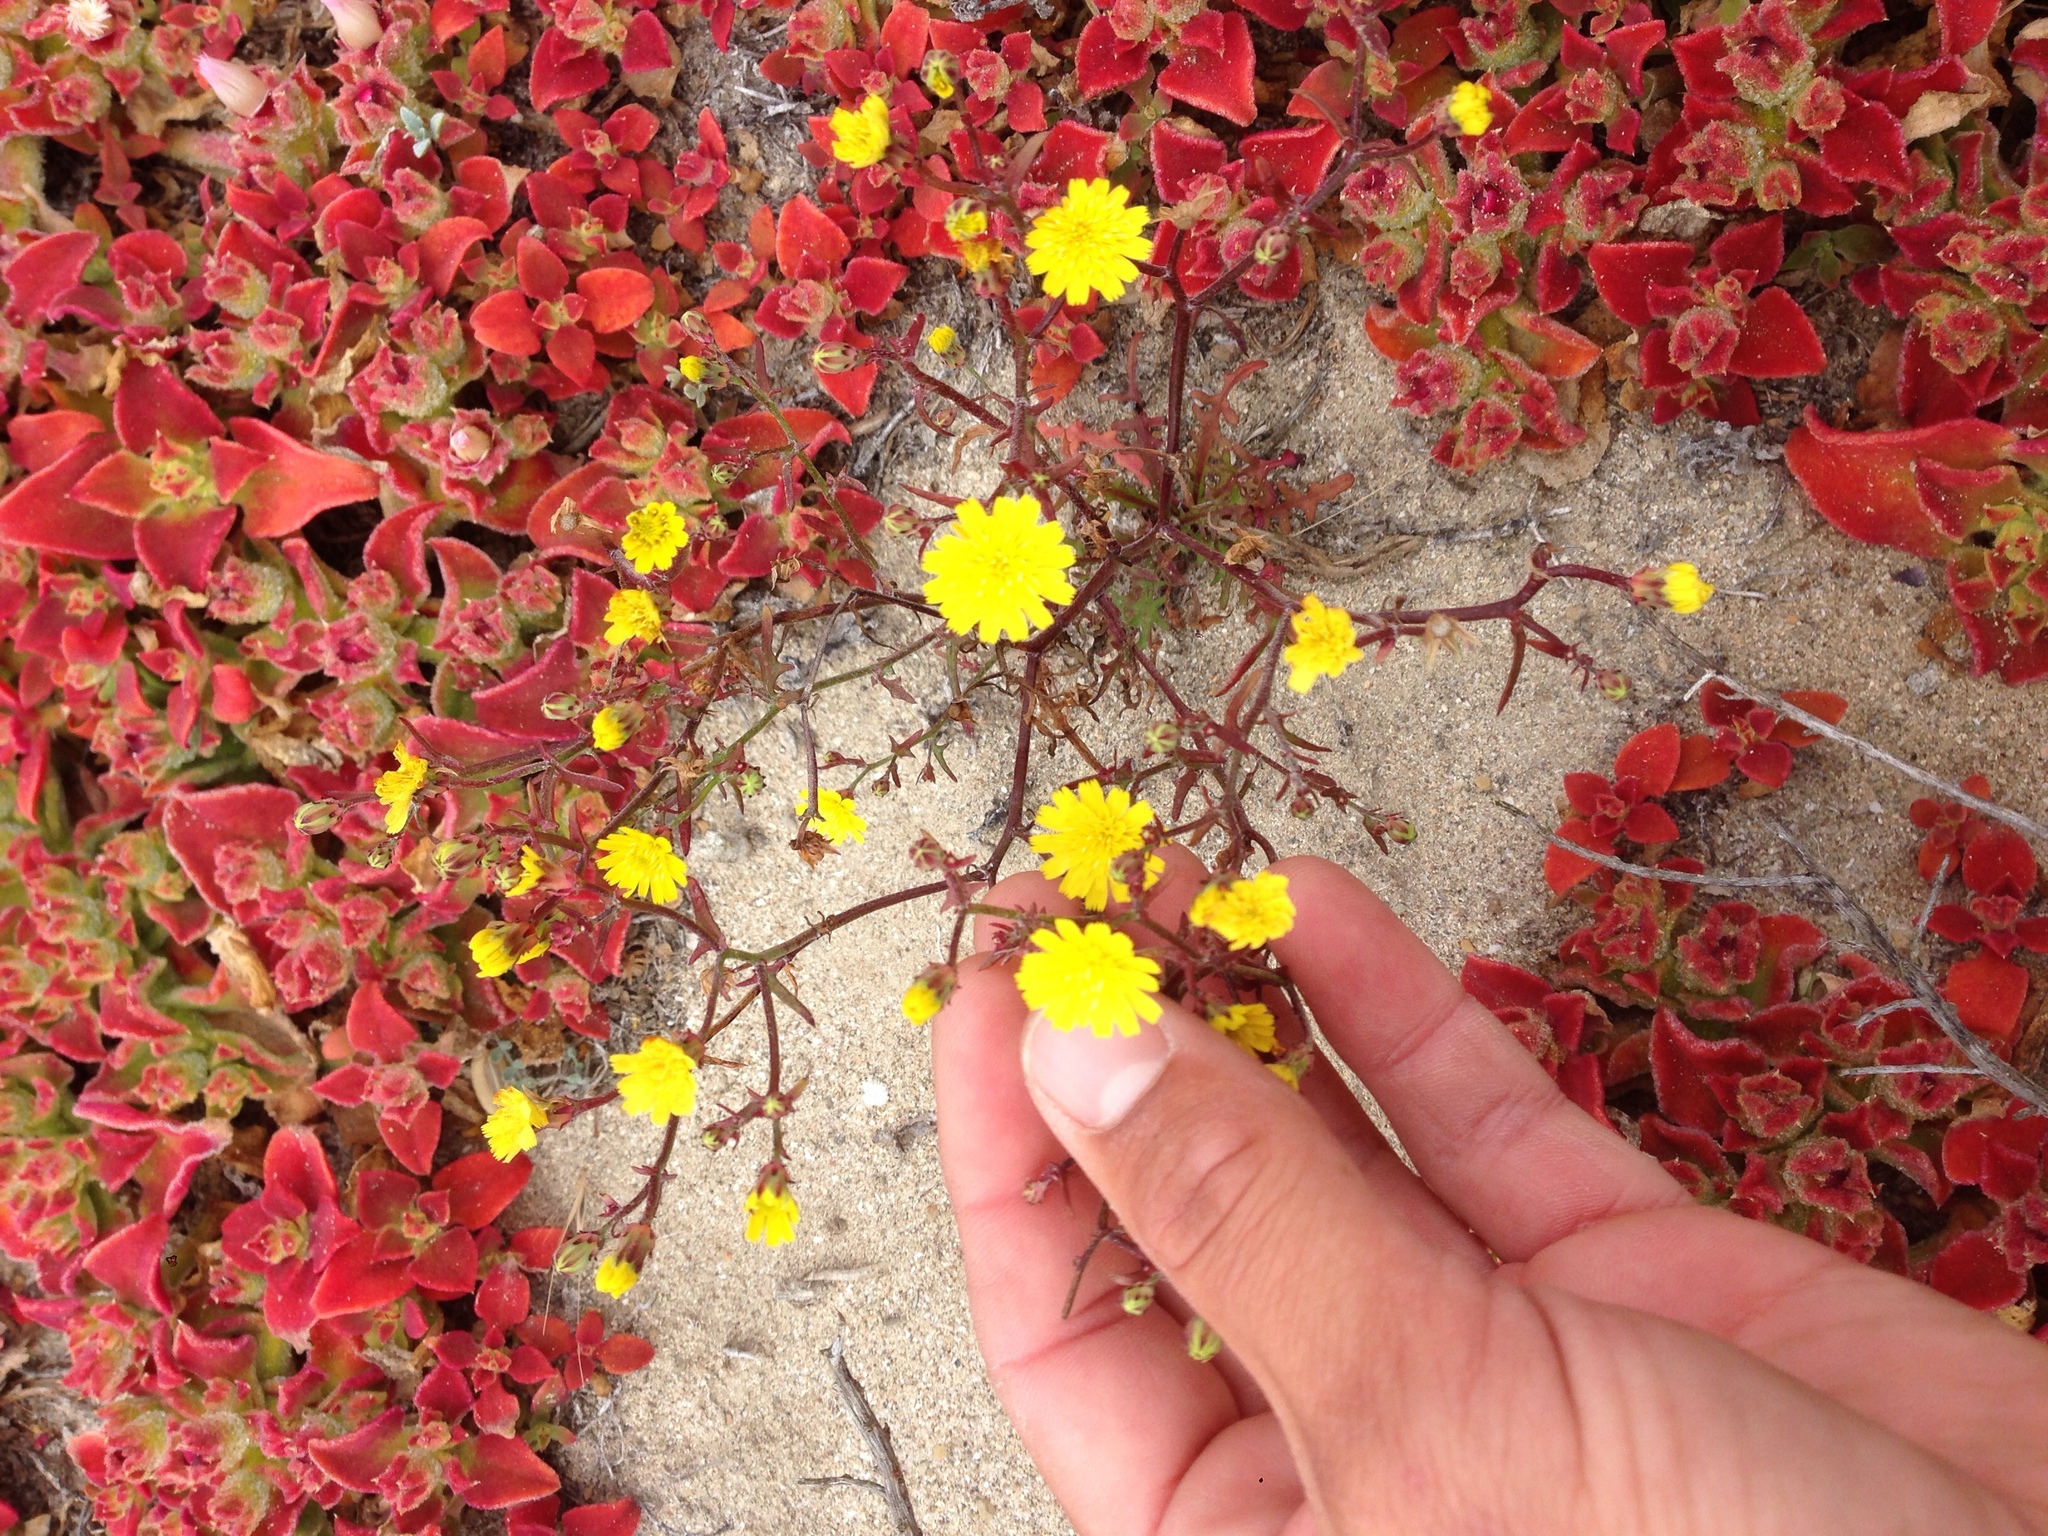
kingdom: Plantae
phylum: Tracheophyta
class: Magnoliopsida
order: Asterales
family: Asteraceae
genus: Malacothrix
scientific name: Malacothrix foliosa
